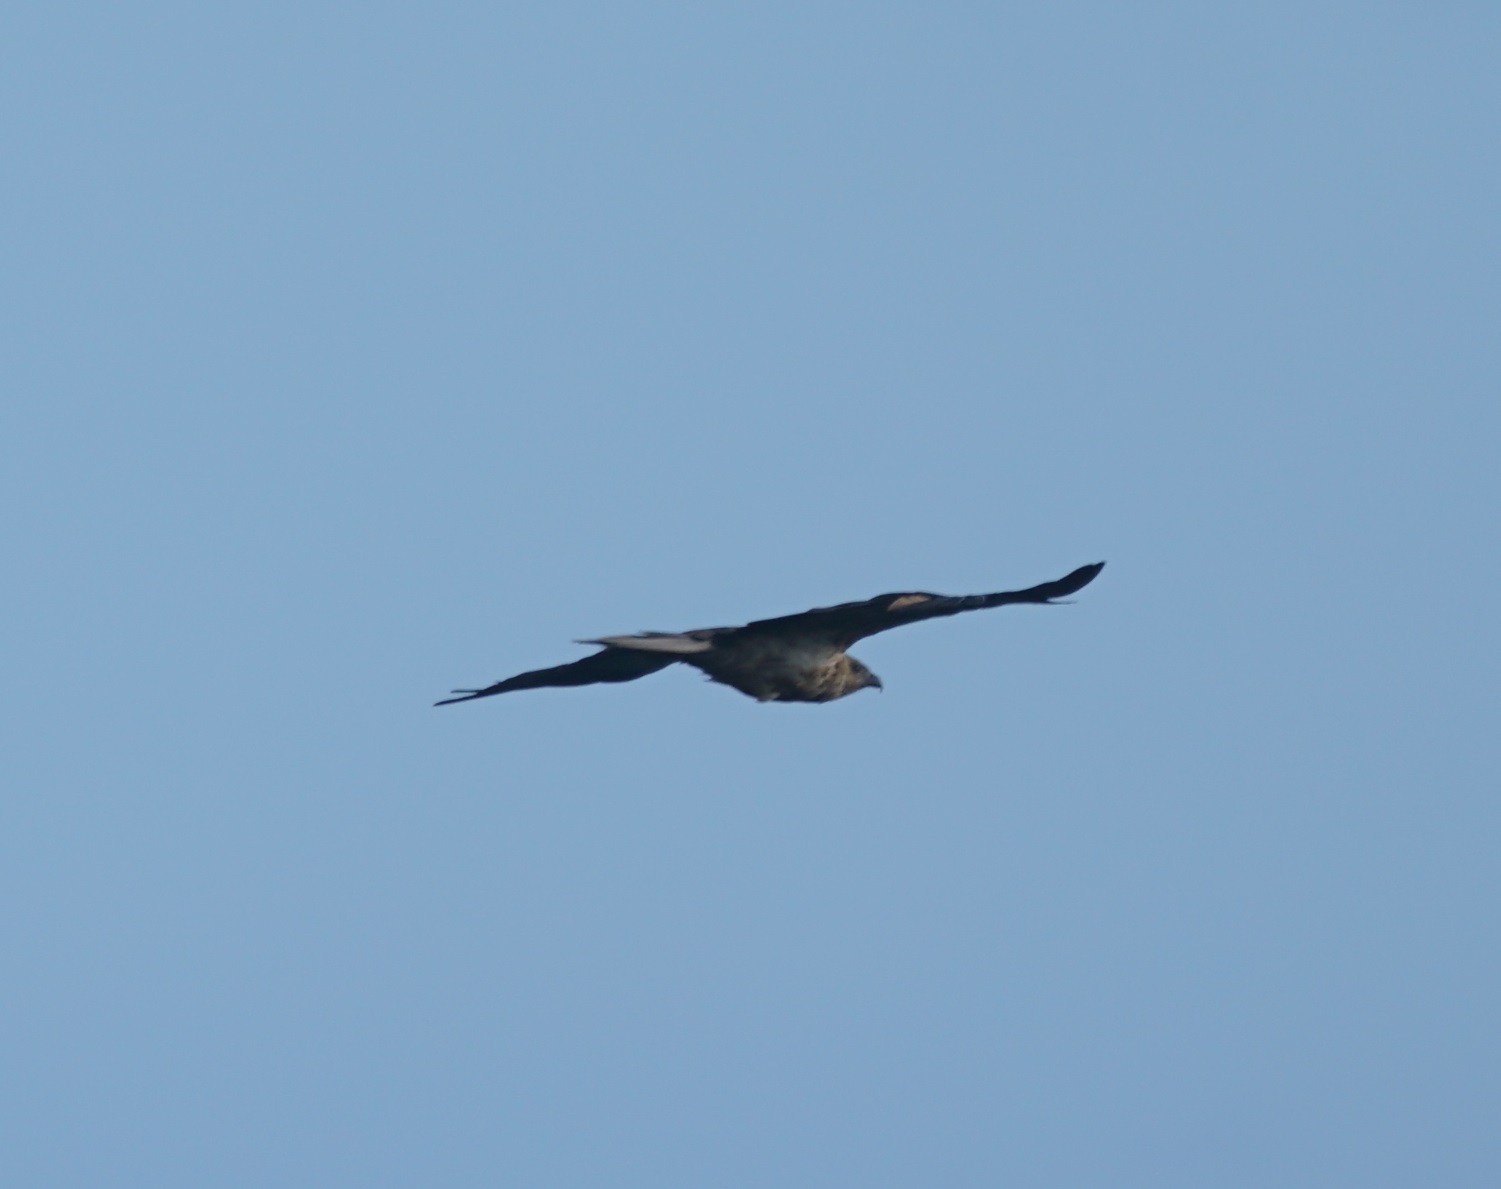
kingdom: Animalia
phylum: Chordata
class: Aves
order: Accipitriformes
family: Accipitridae
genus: Haliastur
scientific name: Haliastur sphenurus
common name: Whistling kite
